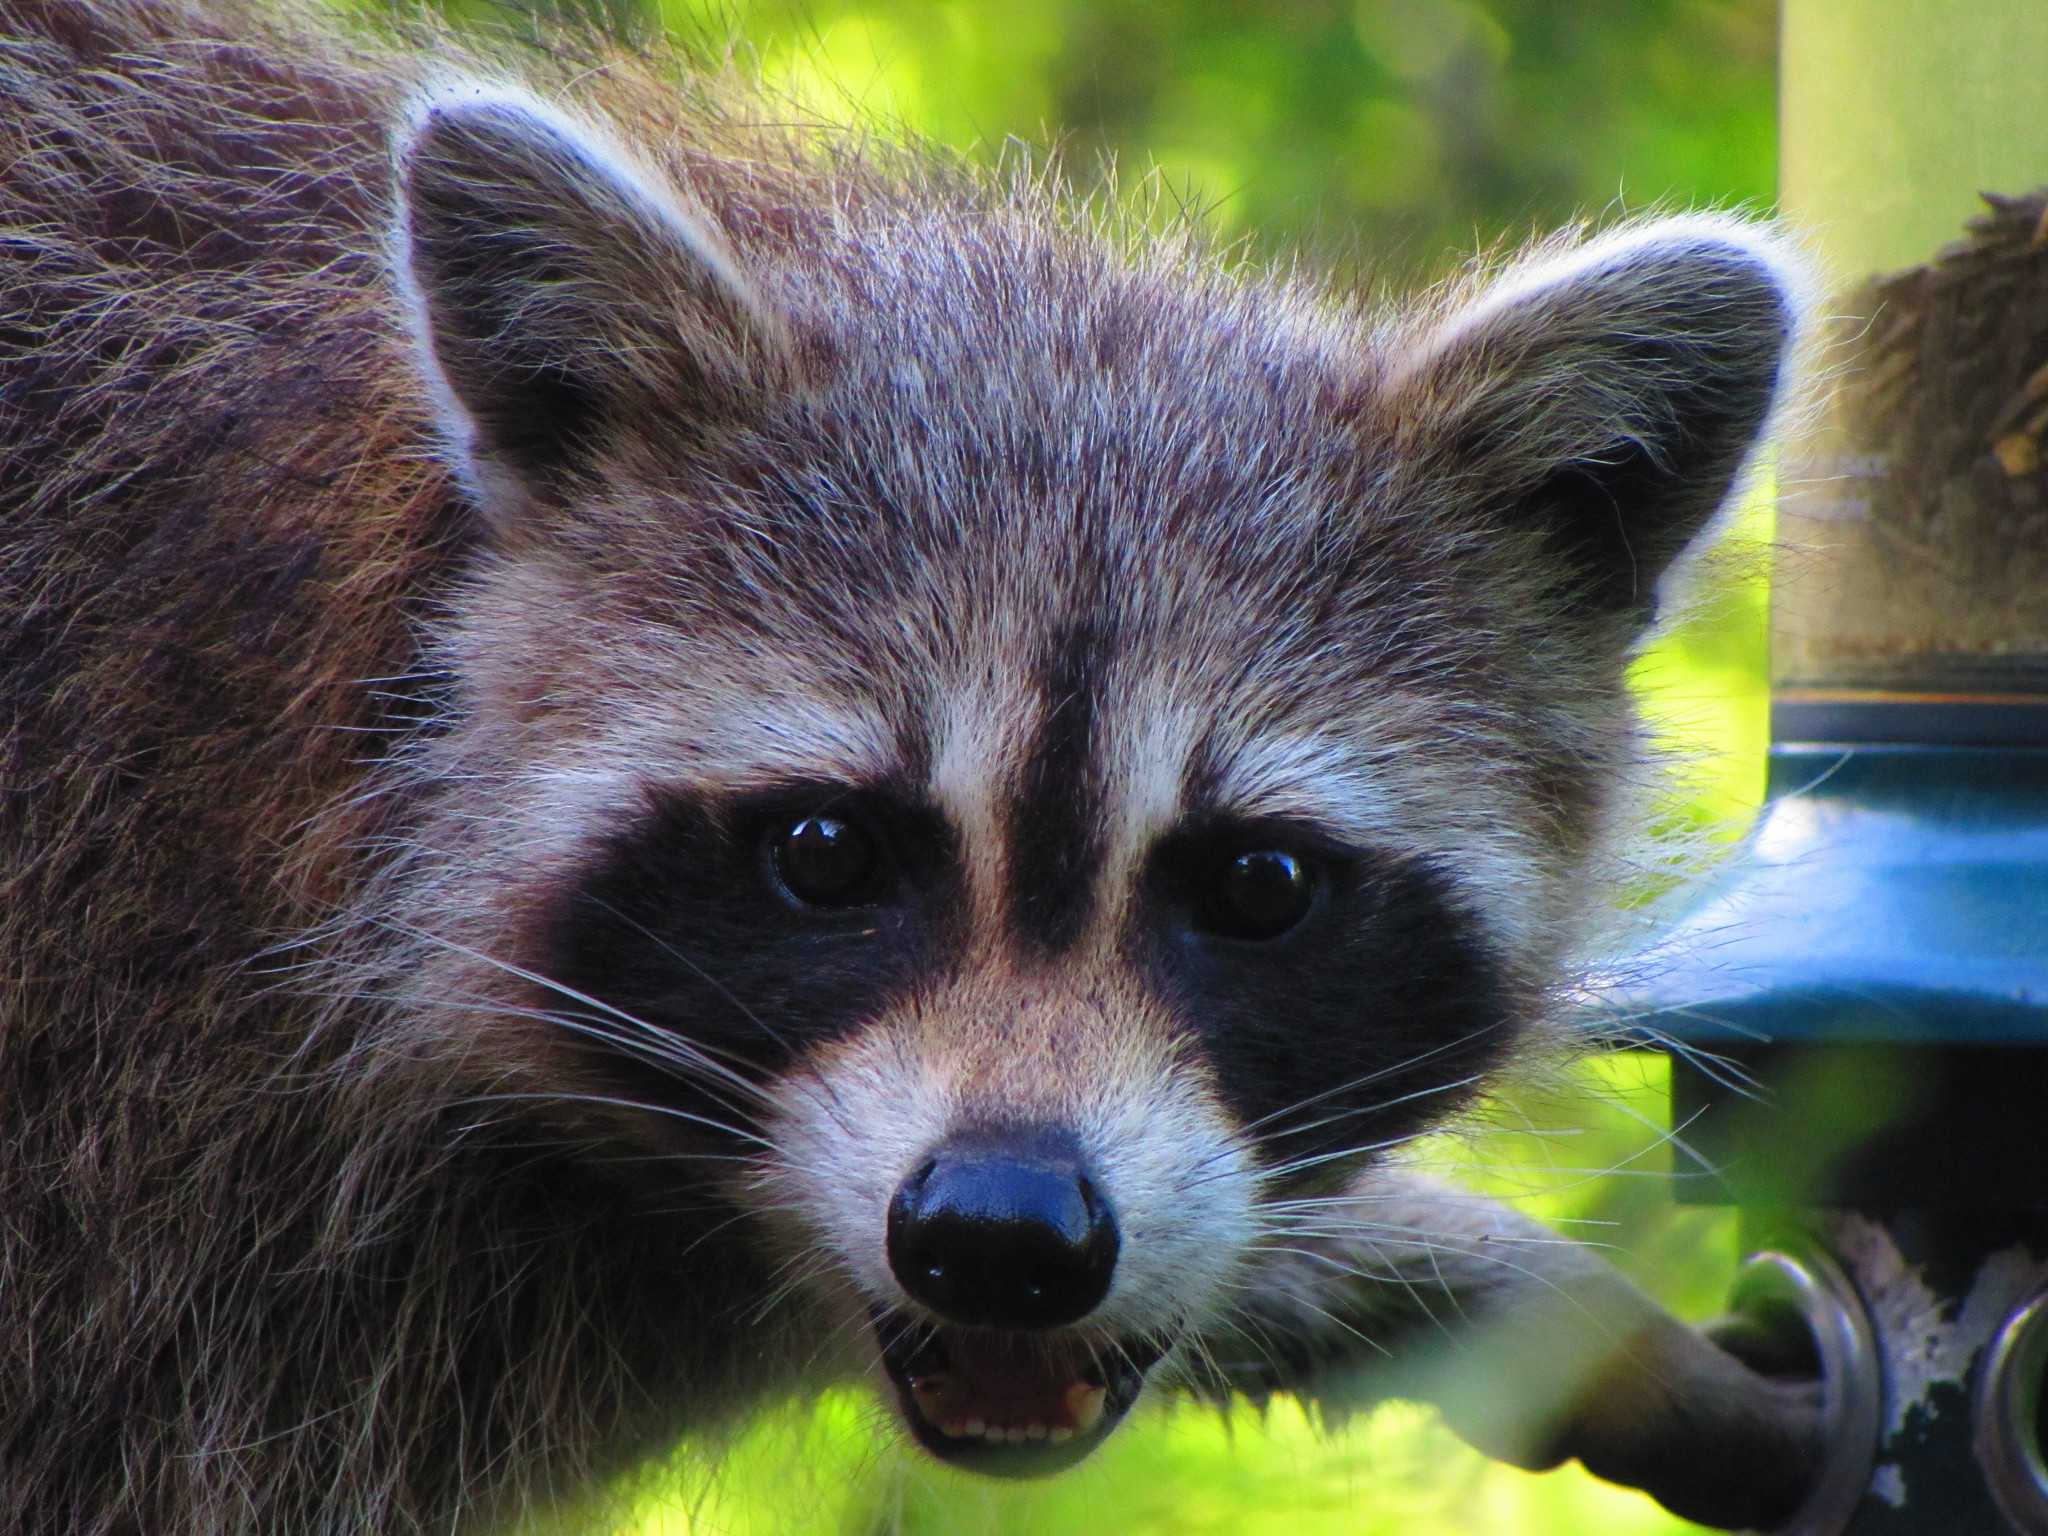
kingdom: Animalia
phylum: Chordata
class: Mammalia
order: Carnivora
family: Procyonidae
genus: Procyon
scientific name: Procyon lotor
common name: Raccoon
